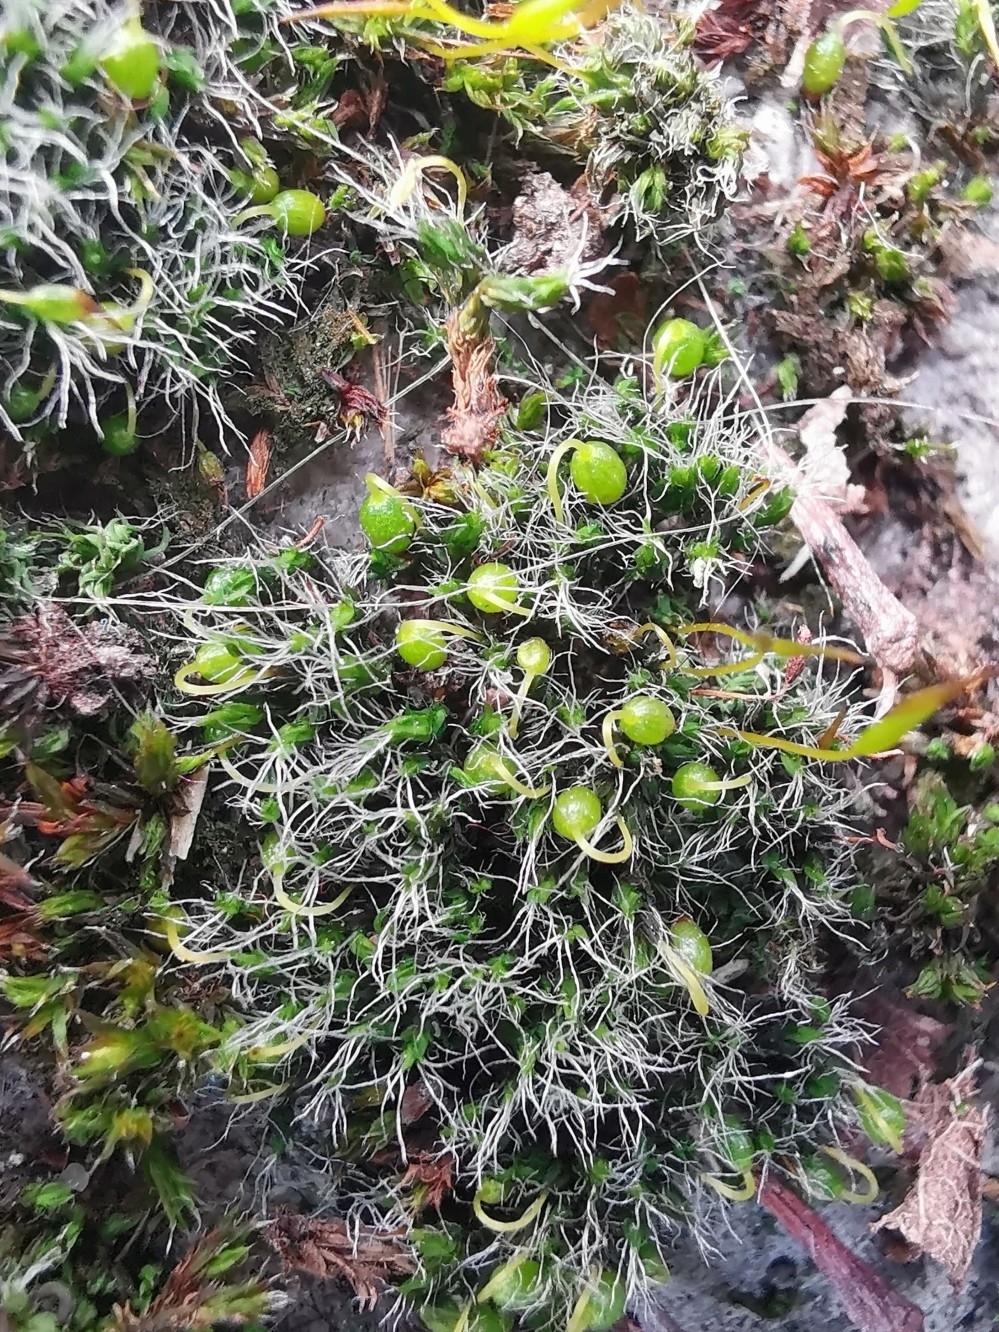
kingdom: Plantae
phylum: Bryophyta
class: Bryopsida
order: Grimmiales
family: Grimmiaceae
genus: Grimmia
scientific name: Grimmia pulvinata
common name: Grey-cushioned grimmia
